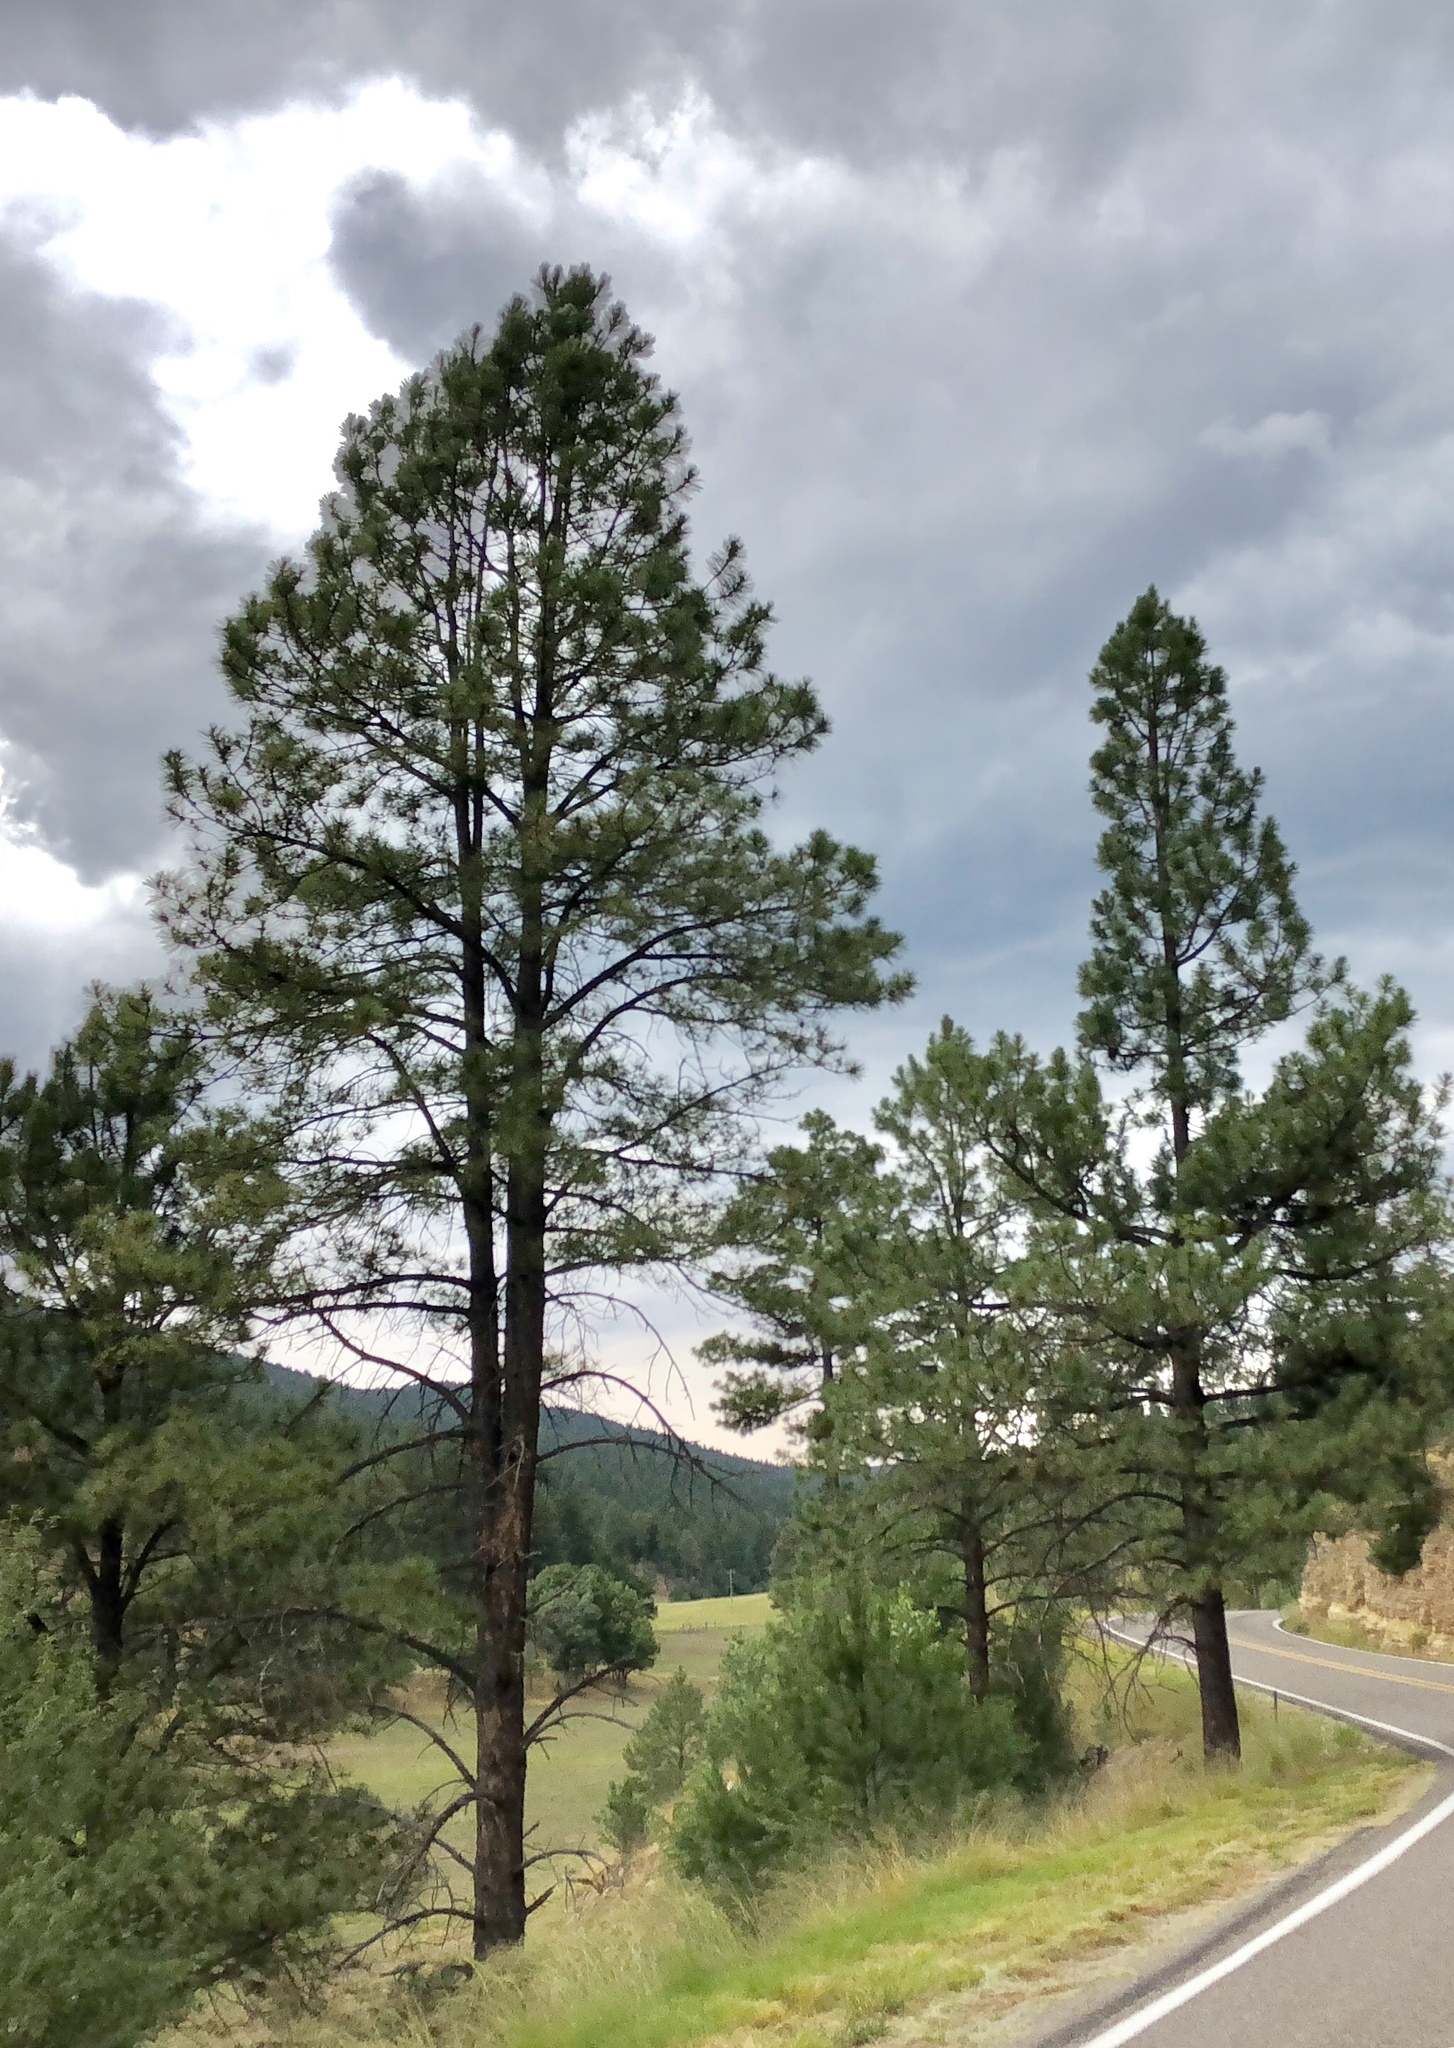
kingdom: Plantae
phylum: Tracheophyta
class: Pinopsida
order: Pinales
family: Pinaceae
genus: Pinus
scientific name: Pinus ponderosa
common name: Western yellow-pine
